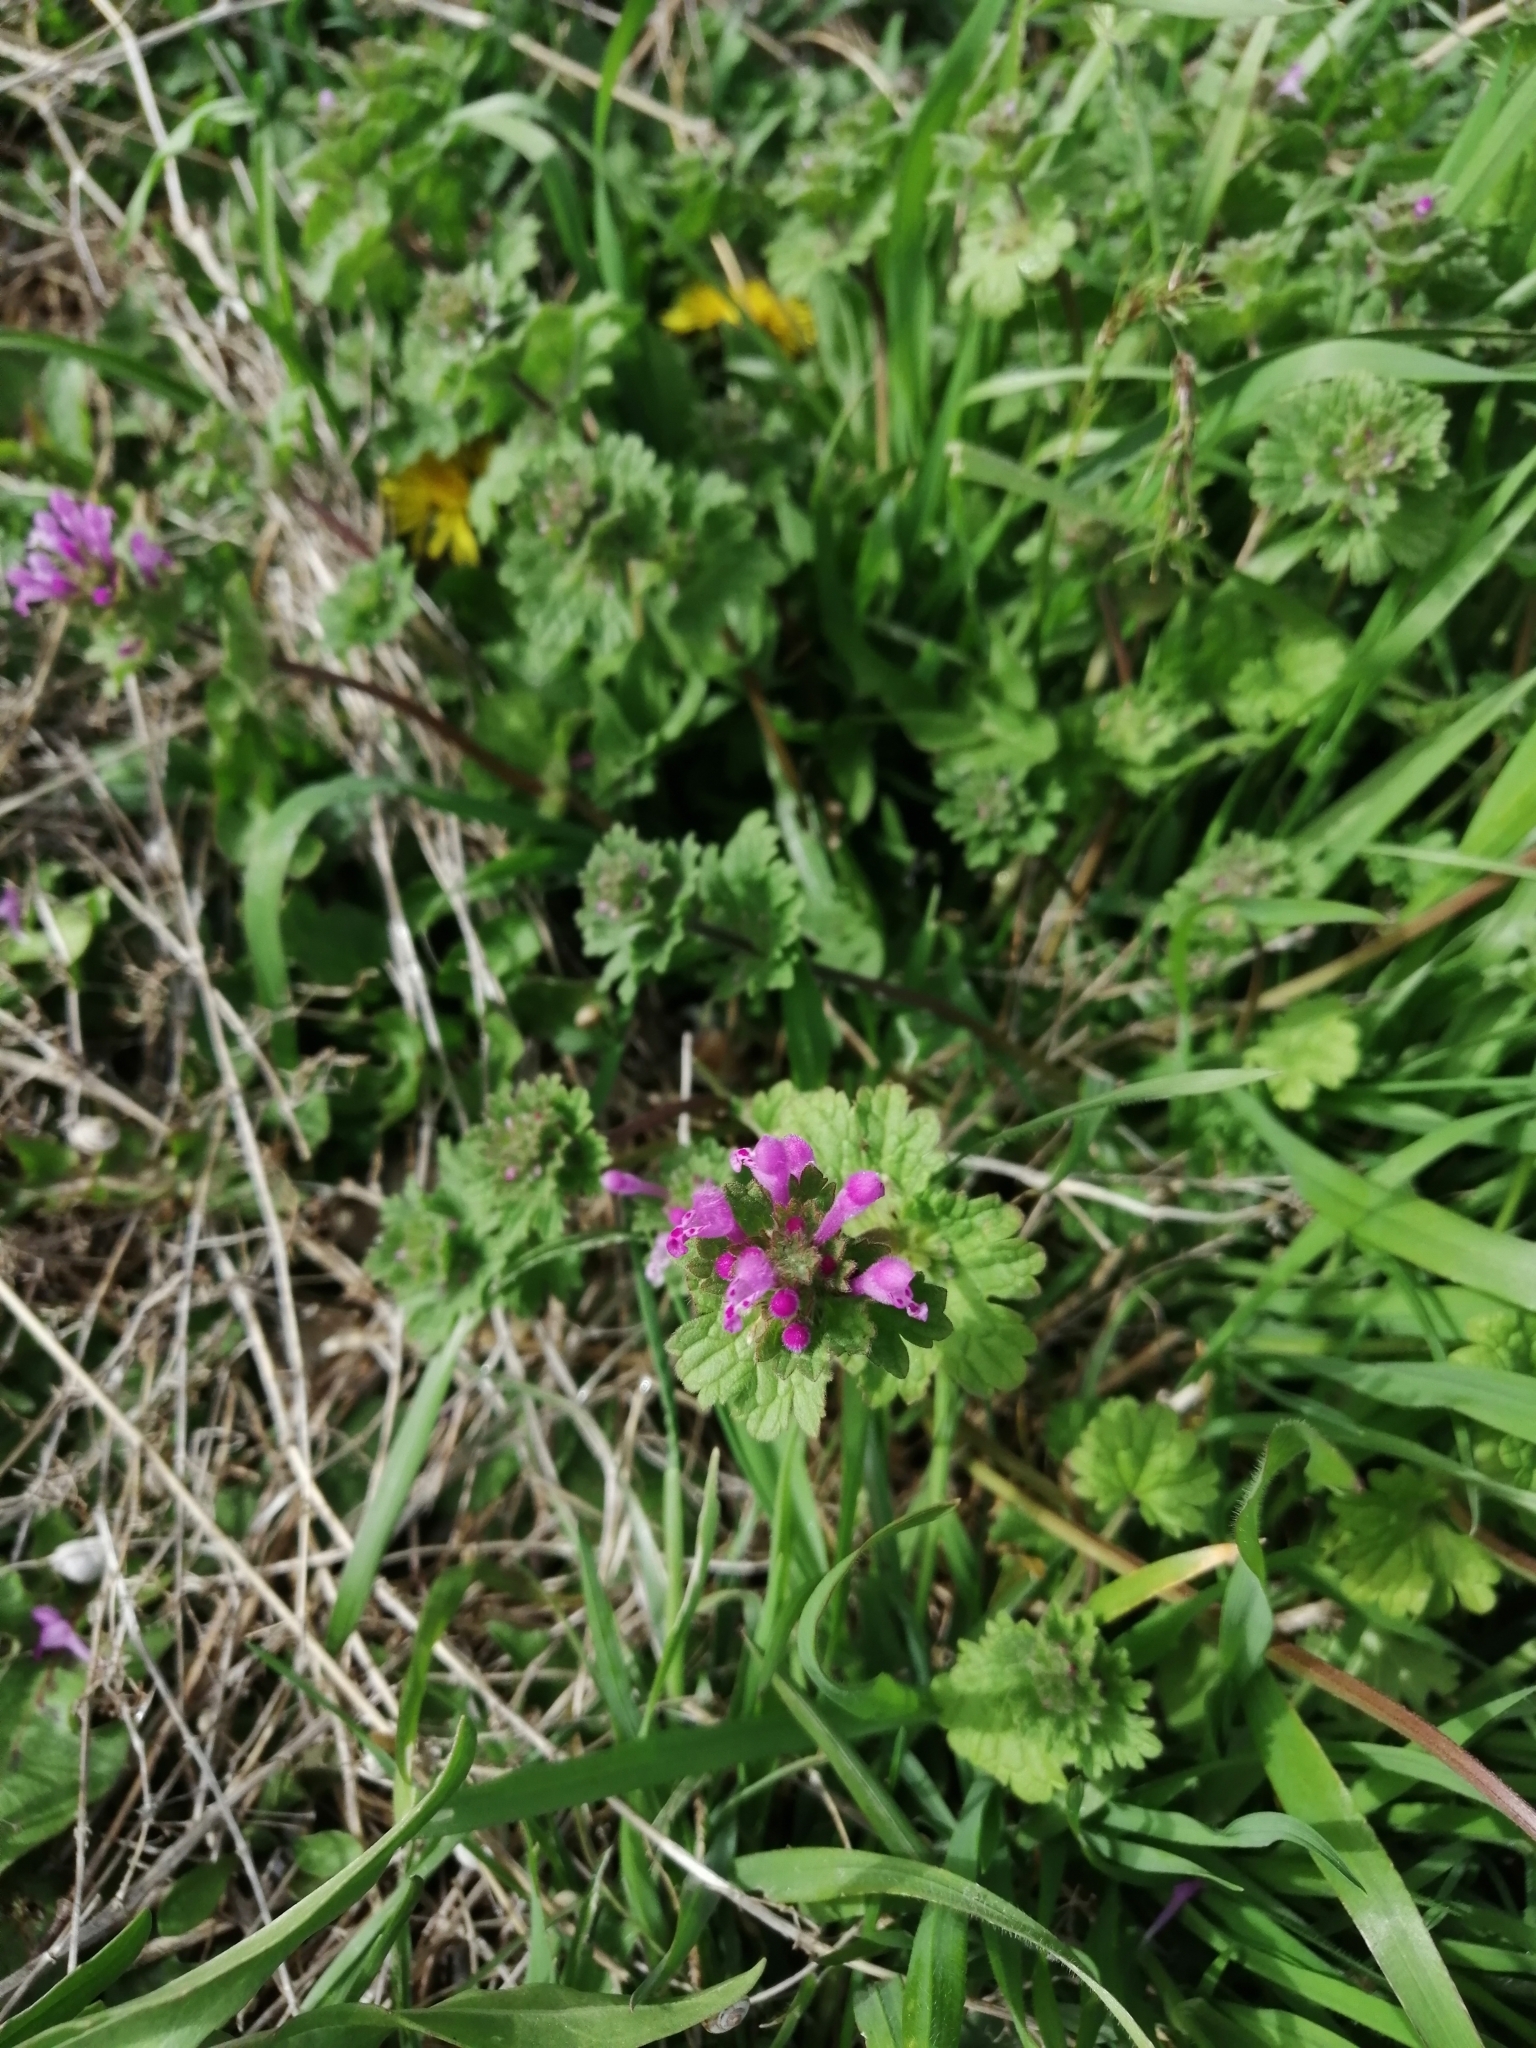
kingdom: Plantae
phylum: Tracheophyta
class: Magnoliopsida
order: Lamiales
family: Lamiaceae
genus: Lamium
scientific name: Lamium amplexicaule
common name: Henbit dead-nettle
